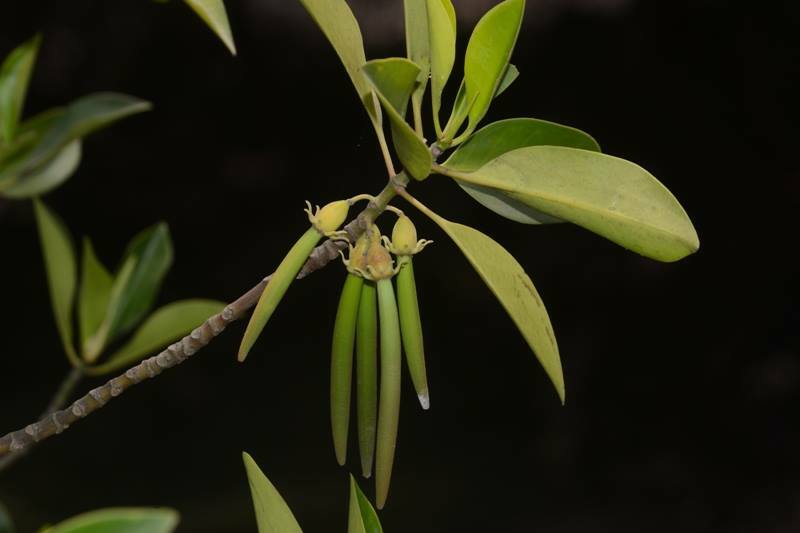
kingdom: Plantae
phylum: Tracheophyta
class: Magnoliopsida
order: Malpighiales
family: Rhizophoraceae
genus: Bruguiera
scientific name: Bruguiera cylindrica
